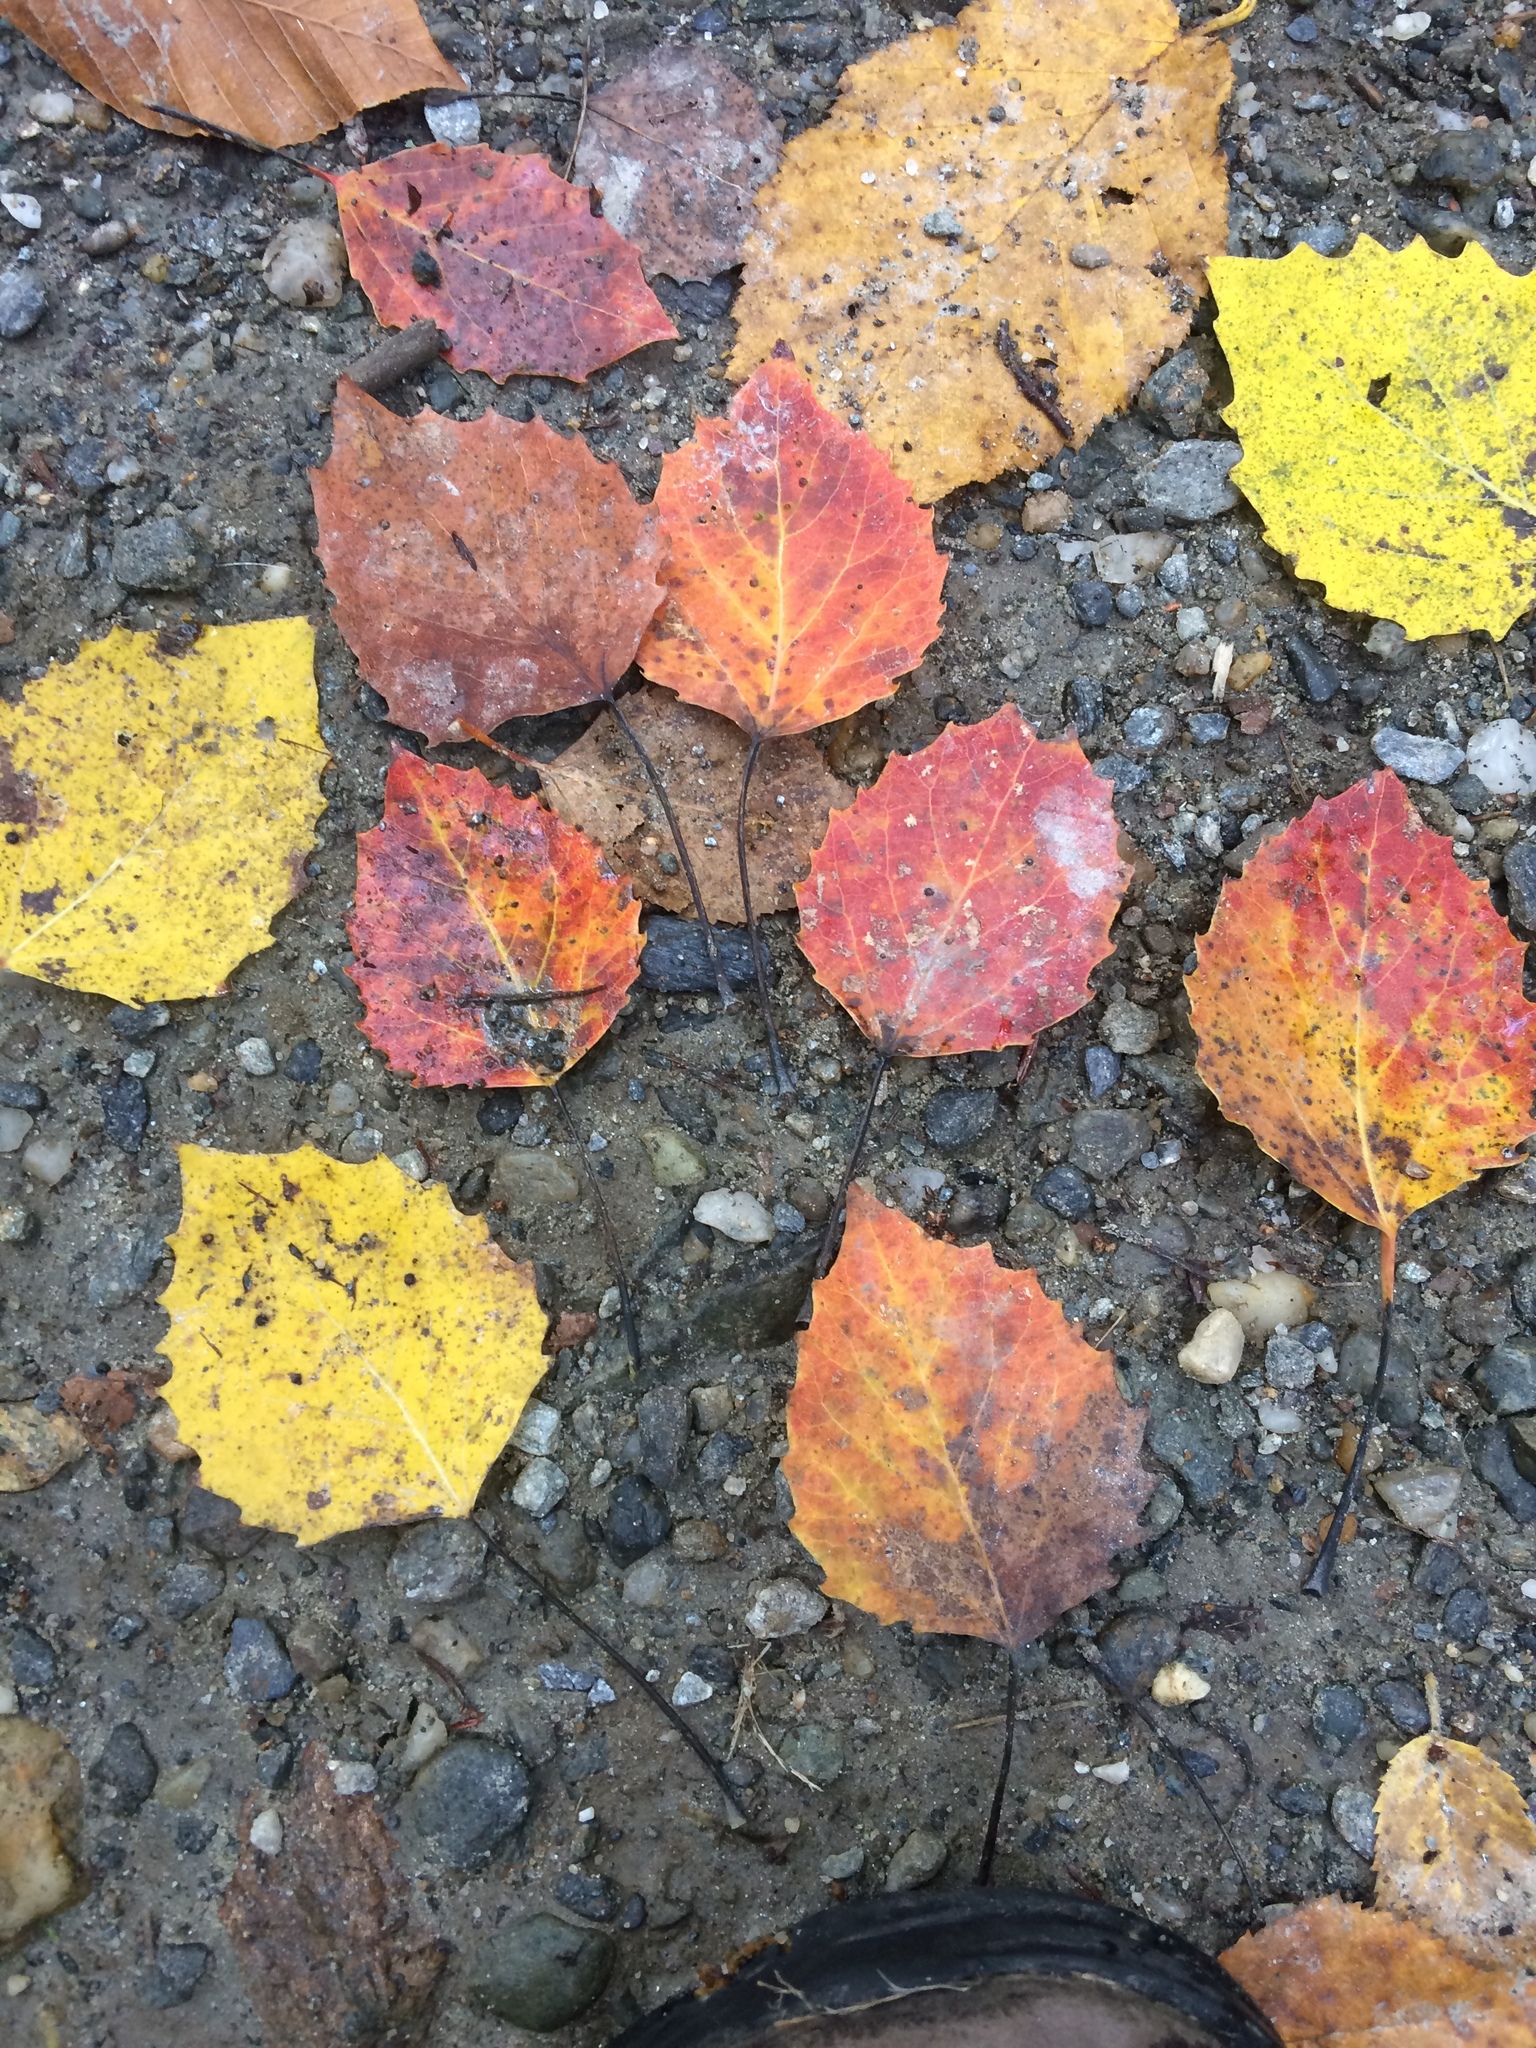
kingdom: Plantae
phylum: Tracheophyta
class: Magnoliopsida
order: Malpighiales
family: Salicaceae
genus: Populus
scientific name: Populus grandidentata
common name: Bigtooth aspen
